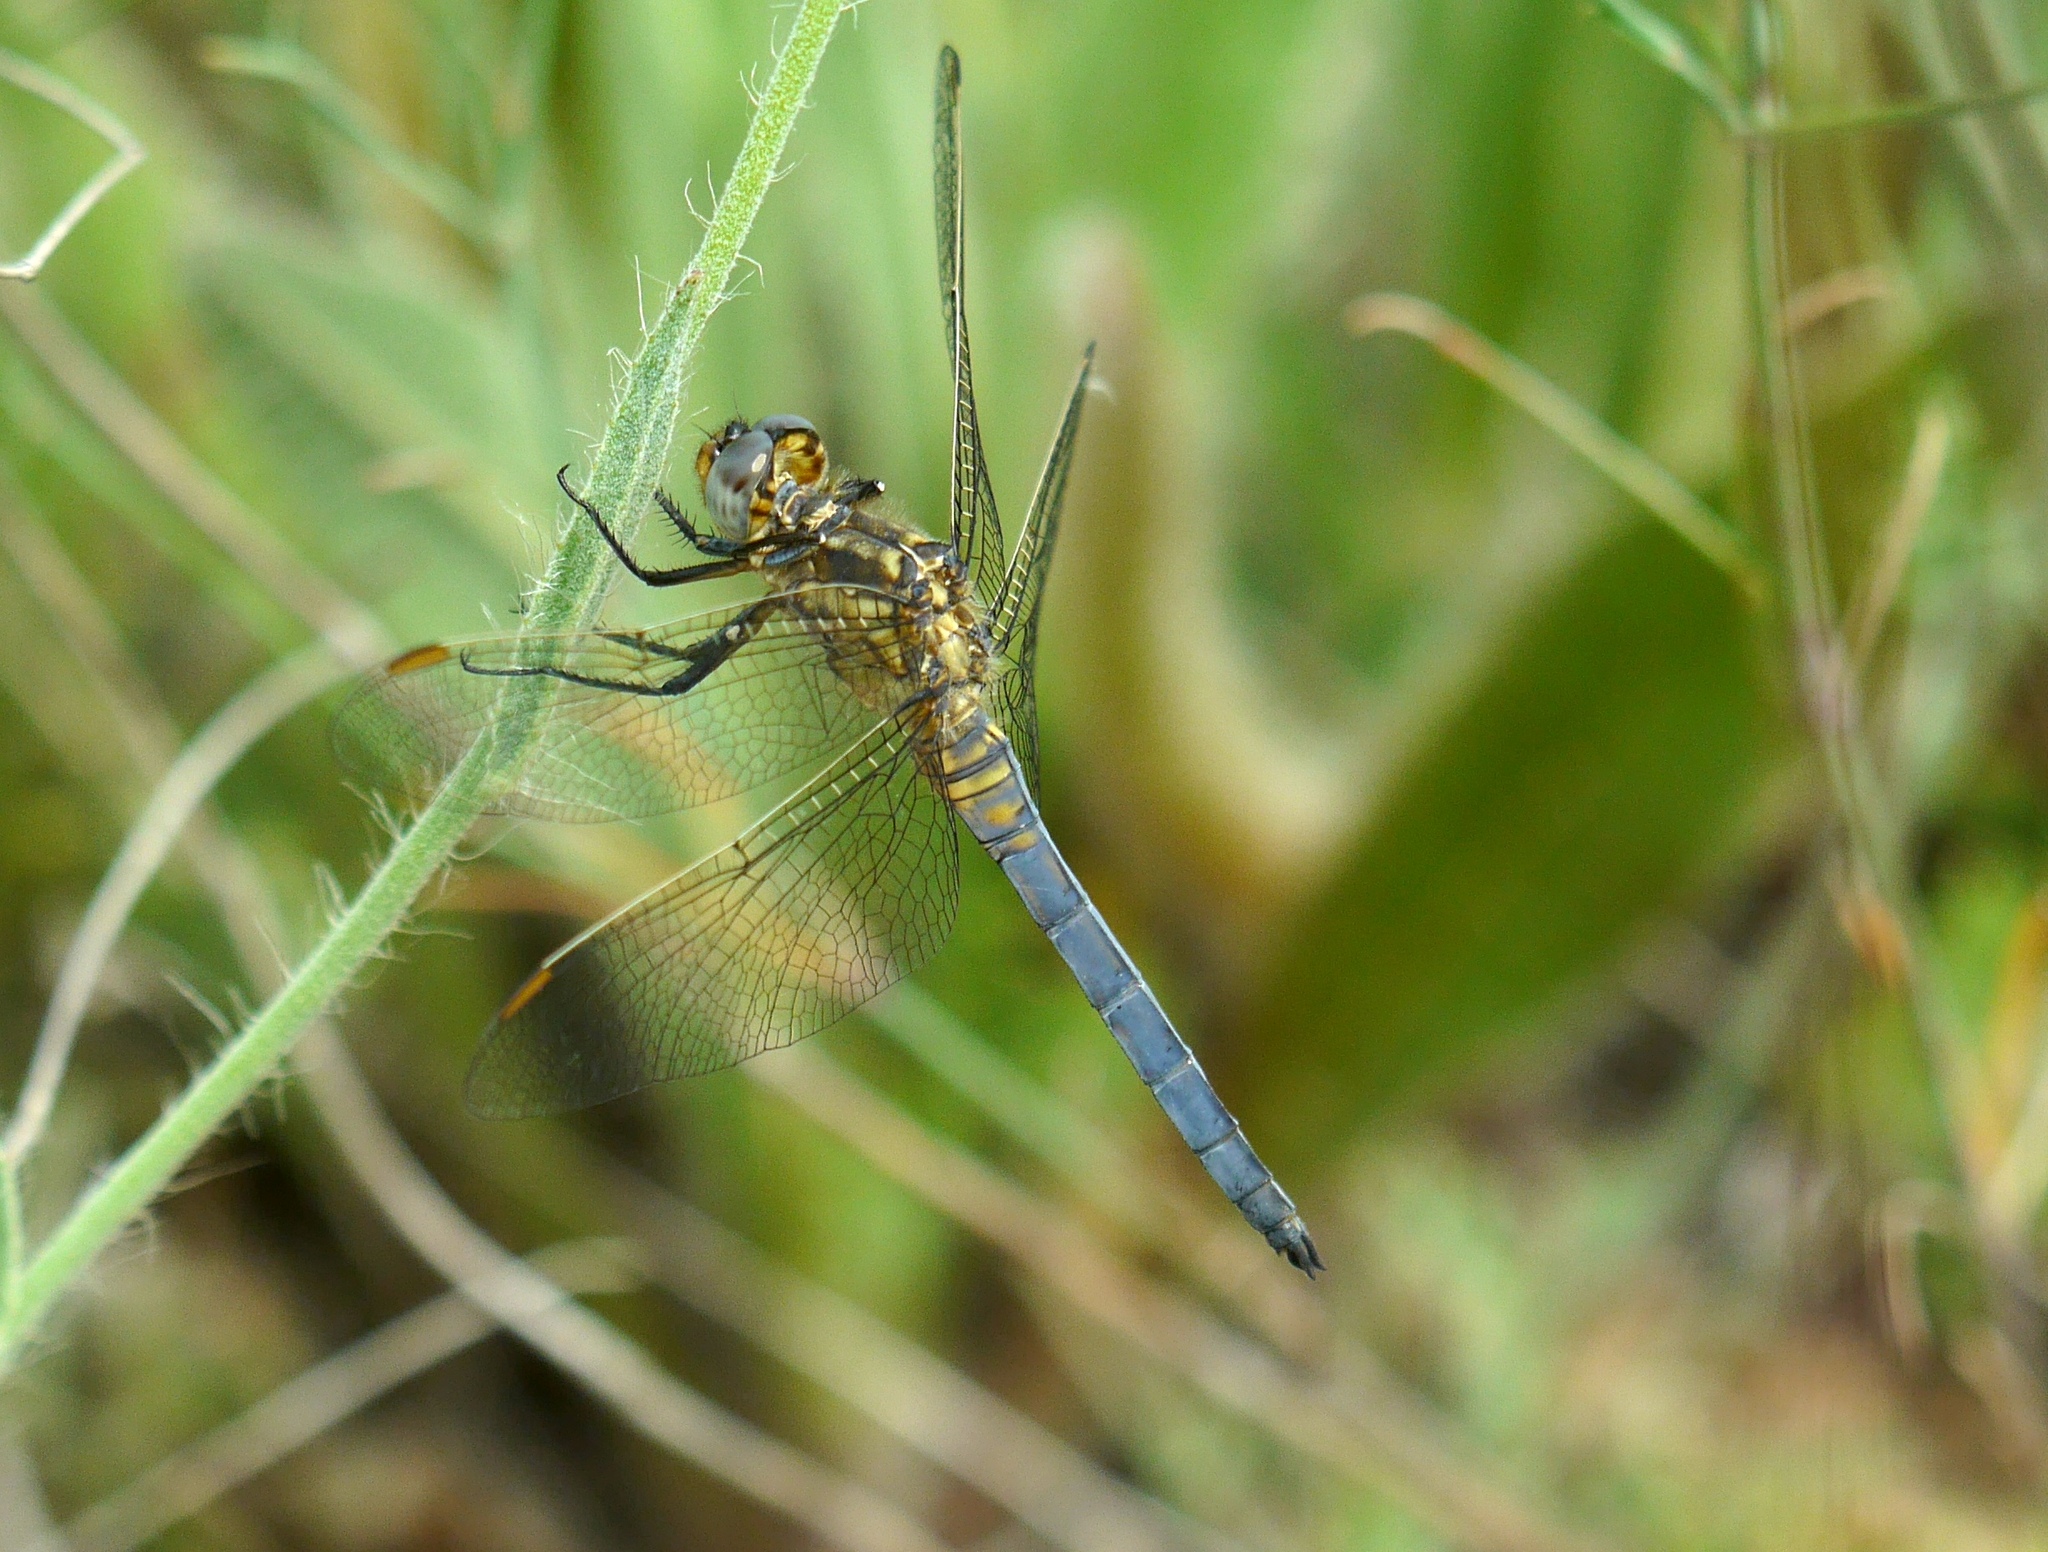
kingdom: Animalia
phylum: Arthropoda
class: Insecta
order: Odonata
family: Libellulidae
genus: Orthetrum
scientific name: Orthetrum coerulescens
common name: Keeled skimmer
